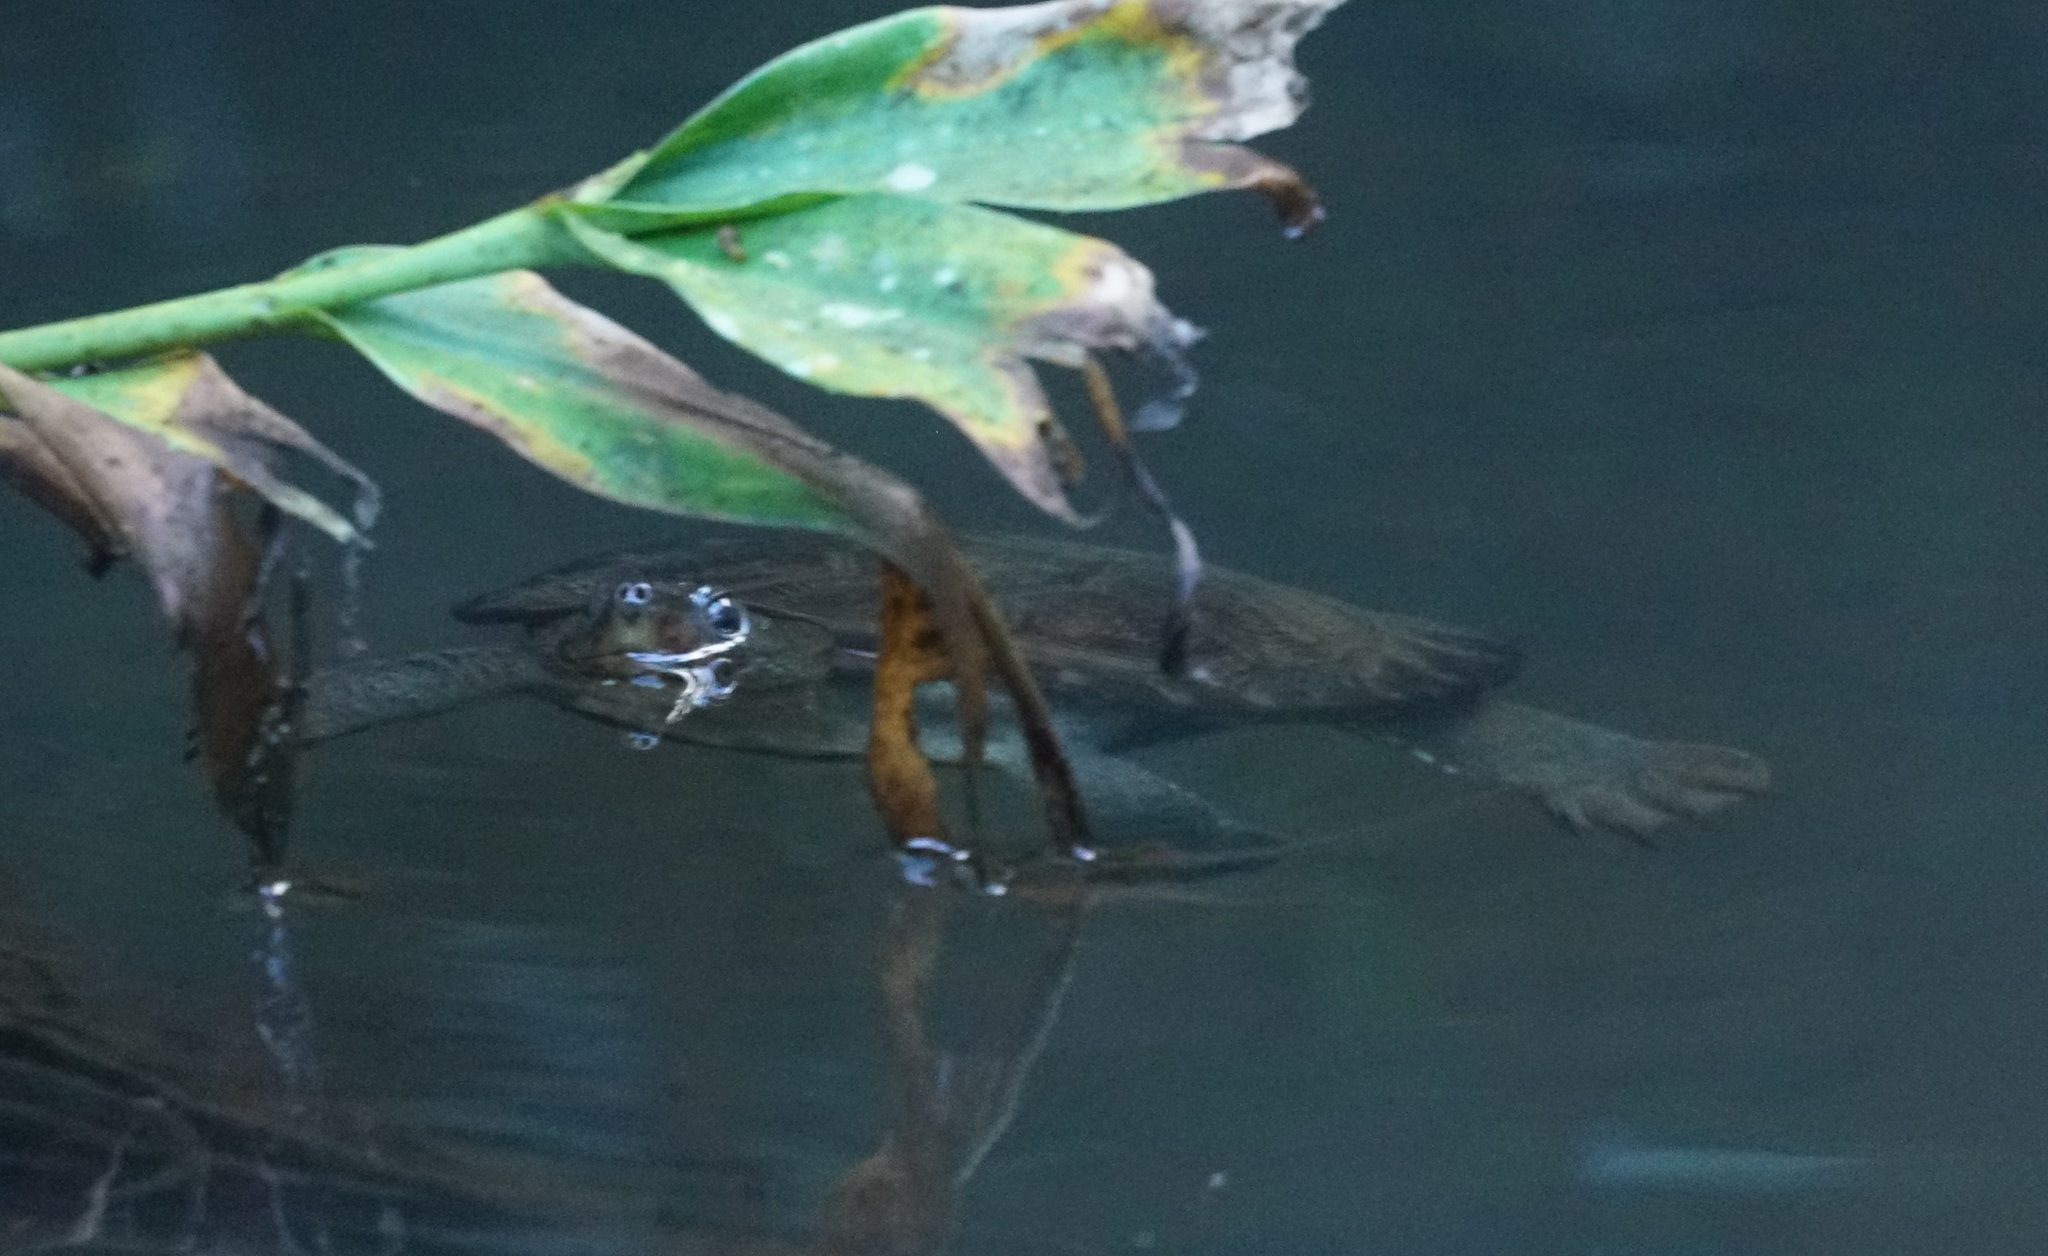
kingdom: Animalia
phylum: Chordata
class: Testudines
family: Chelidae
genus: Elseya
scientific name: Elseya irwini
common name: Irwins snapping turtle
